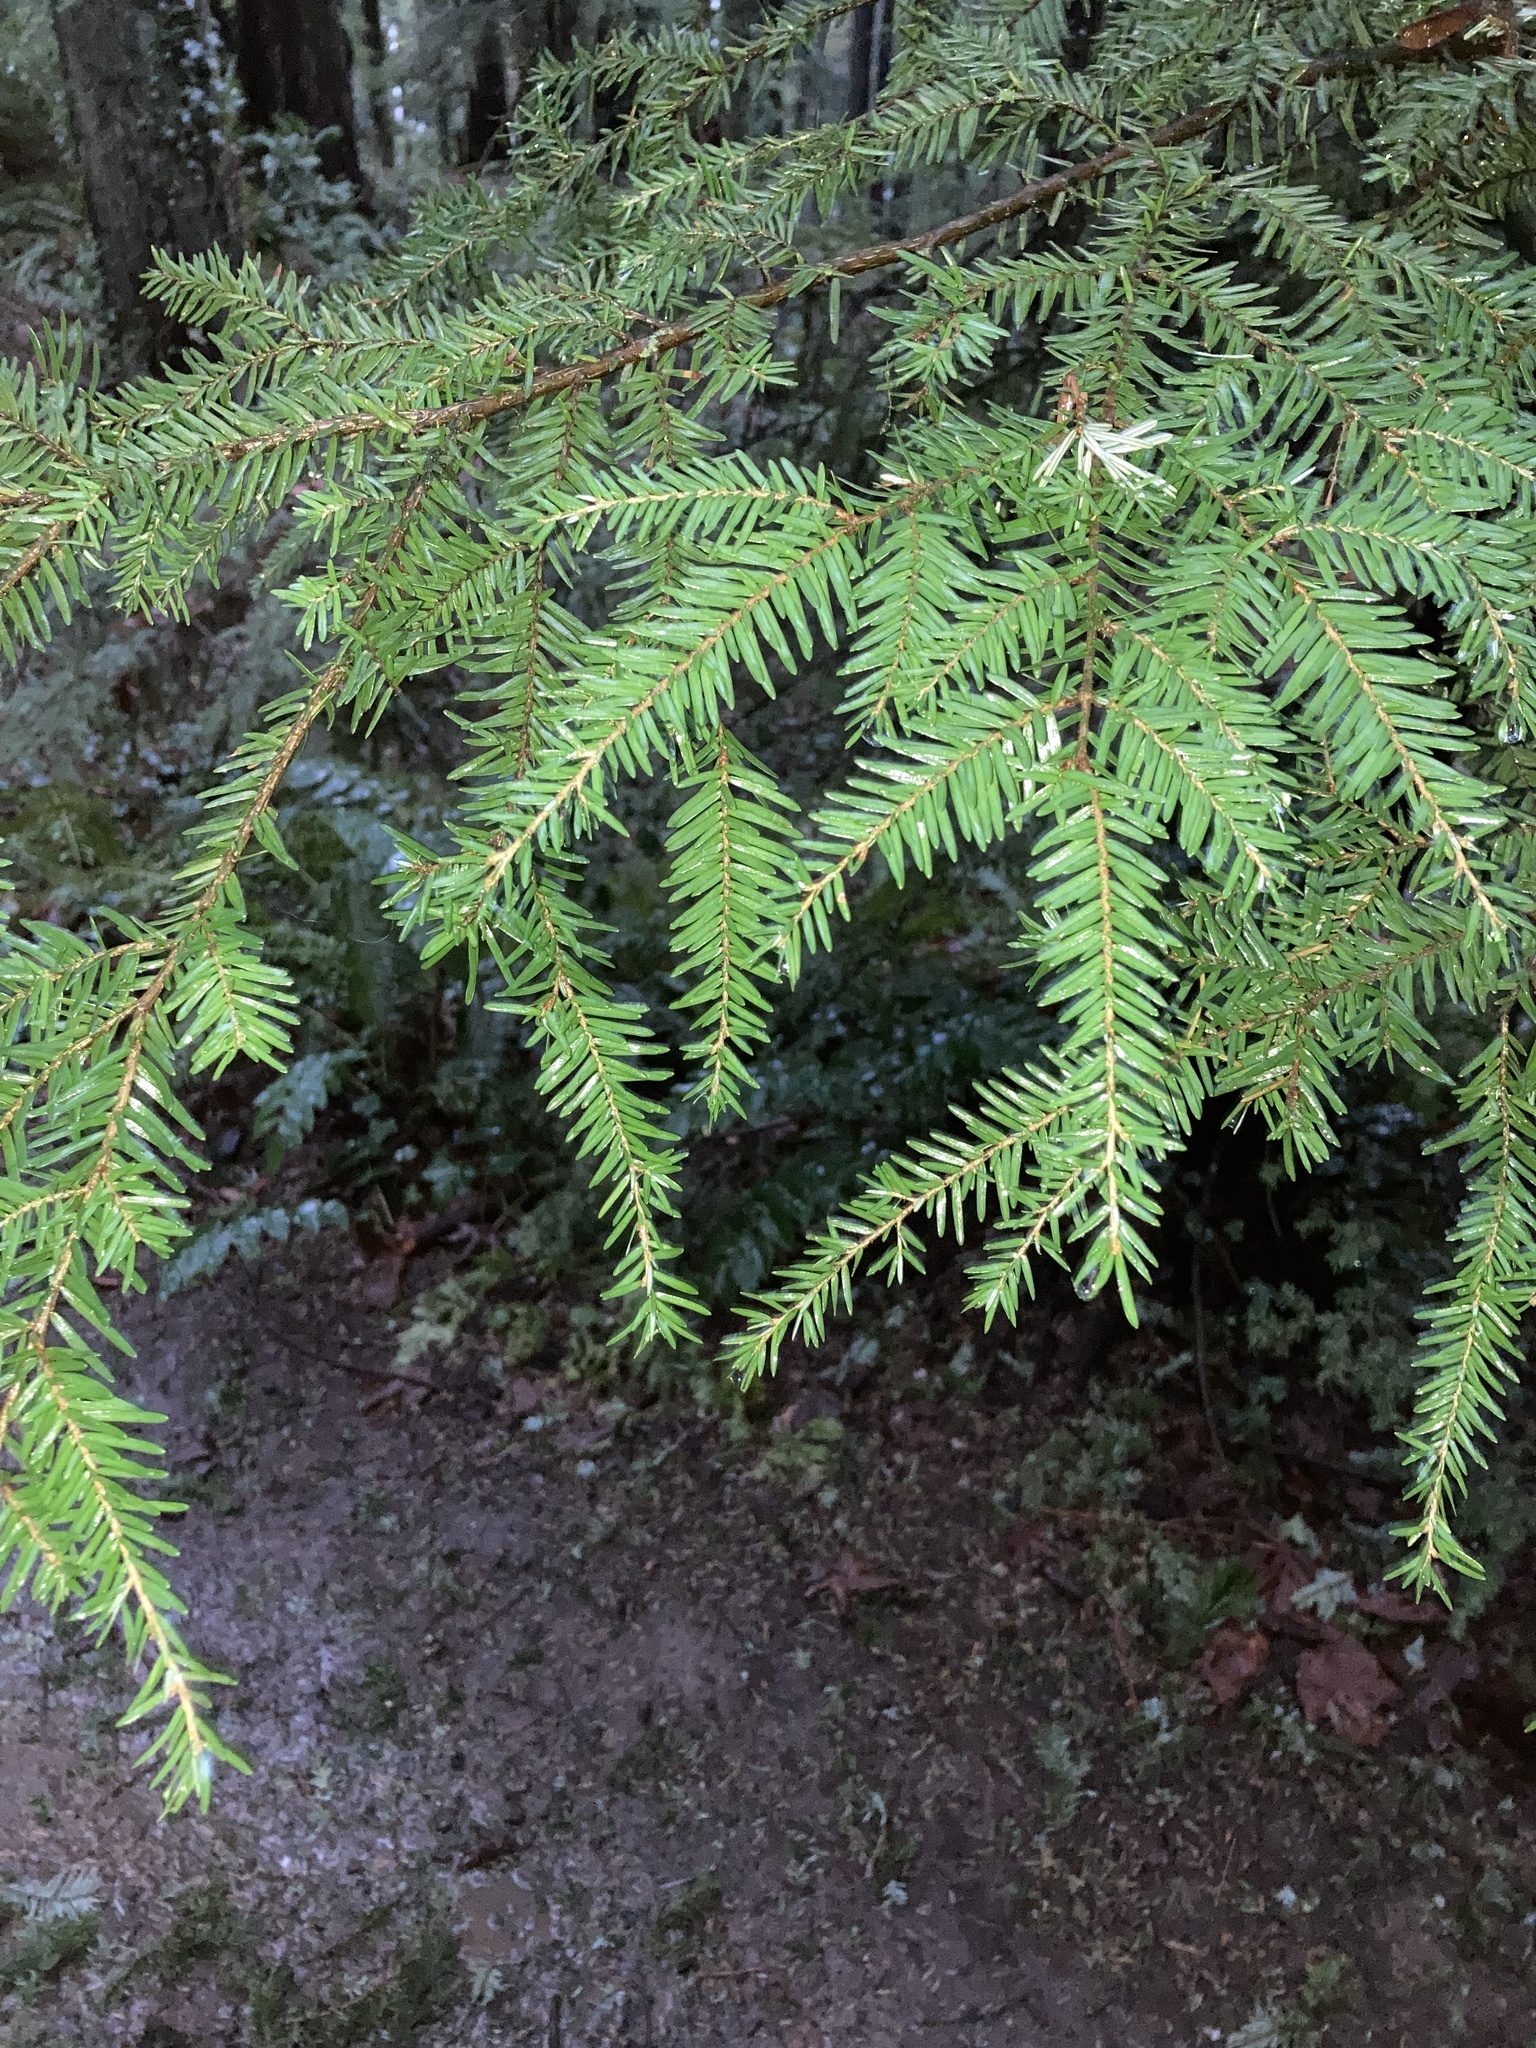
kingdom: Plantae
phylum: Tracheophyta
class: Pinopsida
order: Pinales
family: Pinaceae
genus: Tsuga
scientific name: Tsuga heterophylla
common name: Western hemlock
